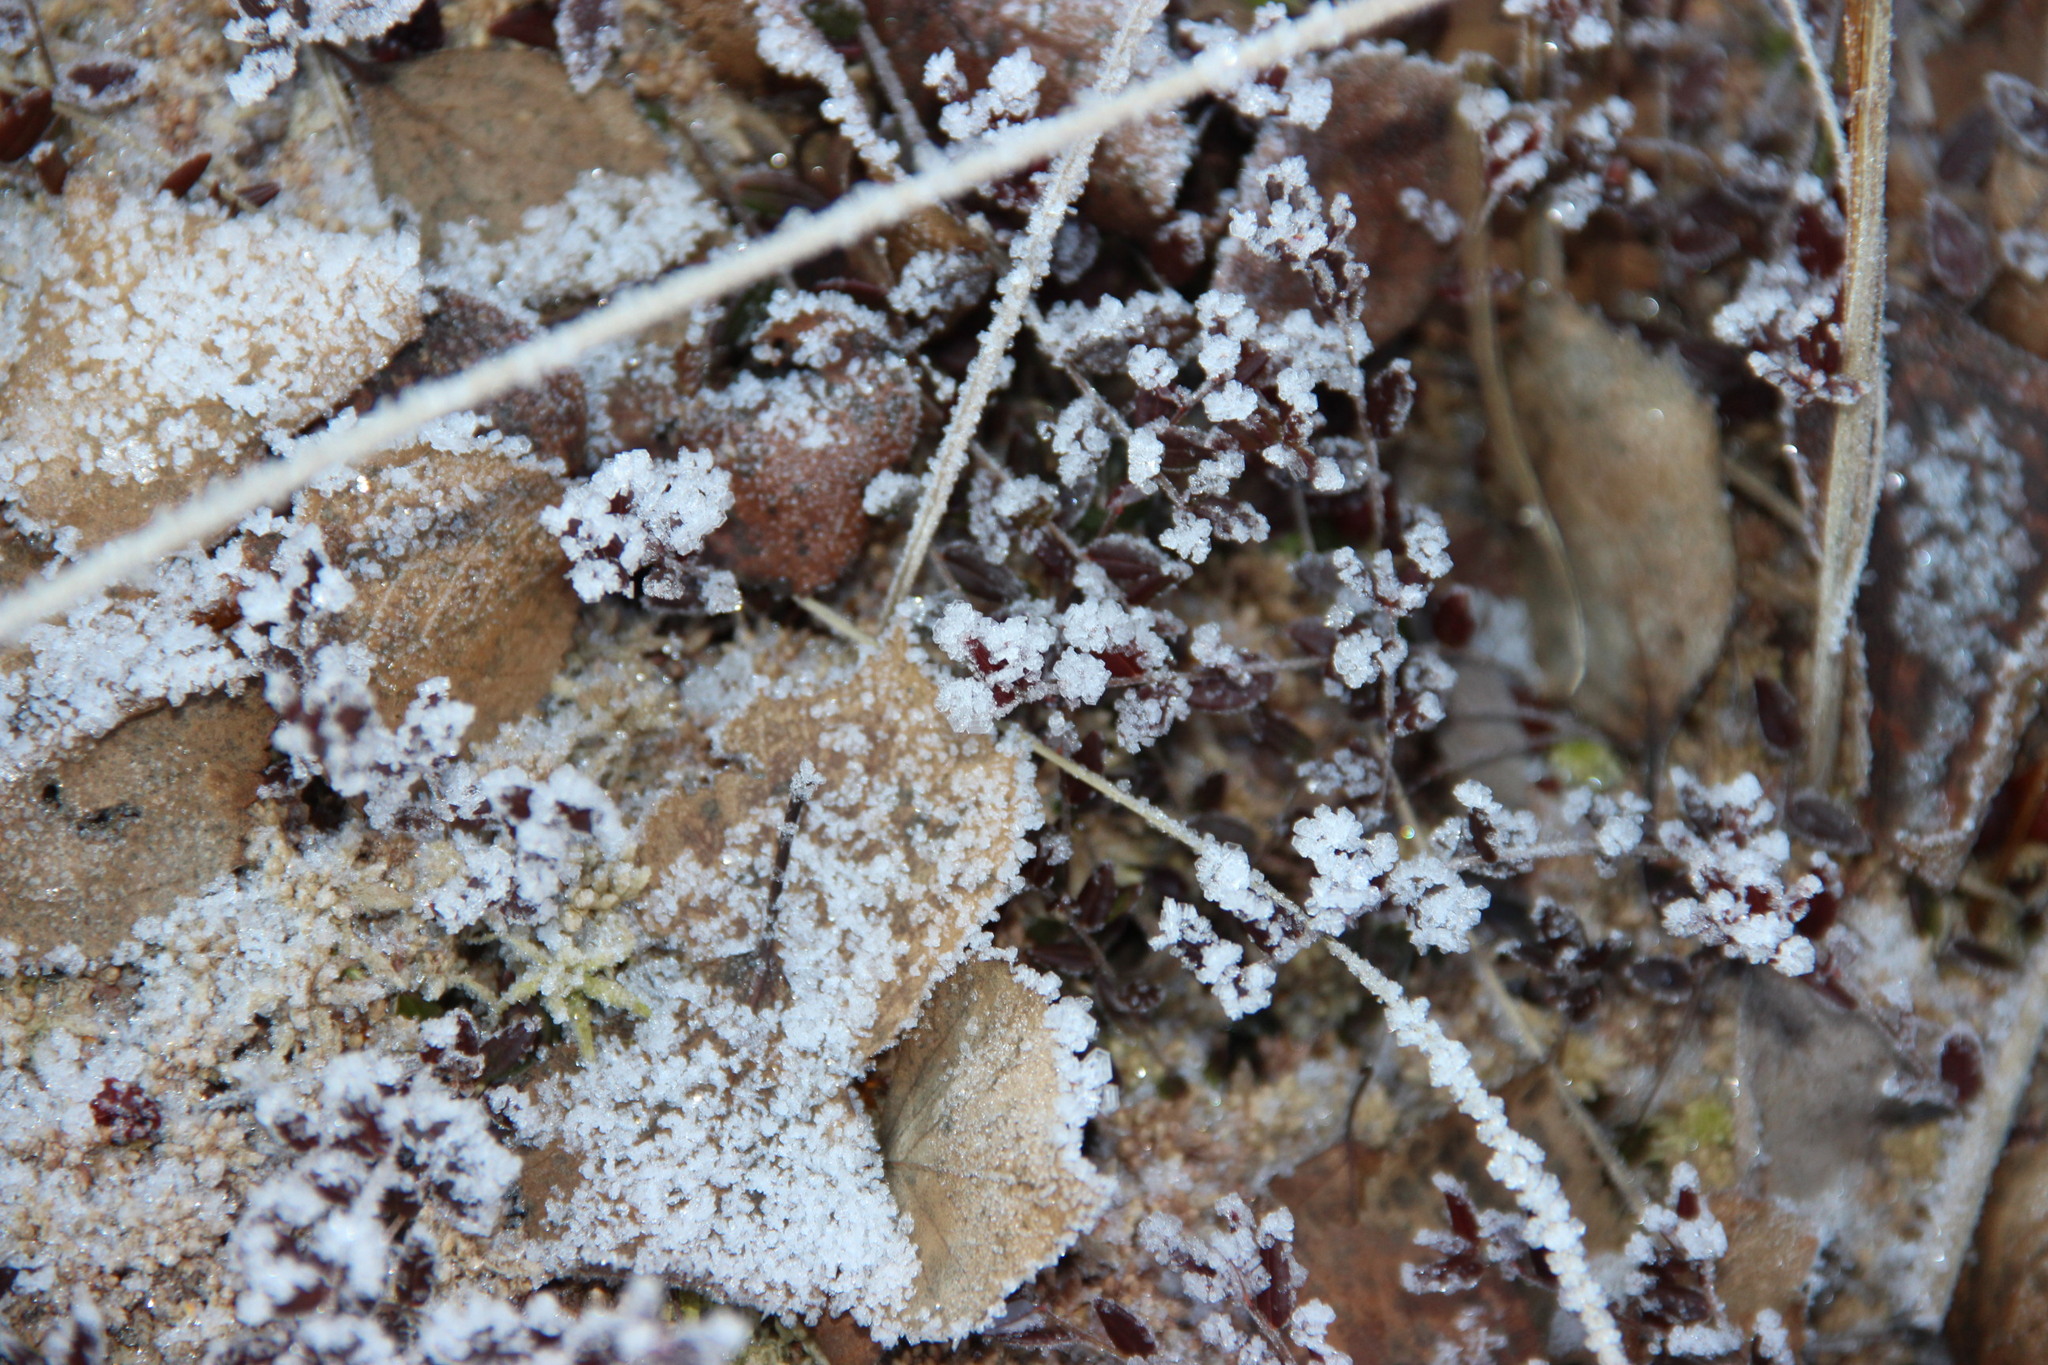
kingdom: Plantae
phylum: Tracheophyta
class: Magnoliopsida
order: Ericales
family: Ericaceae
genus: Vaccinium
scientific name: Vaccinium oxycoccos
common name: Cranberry
